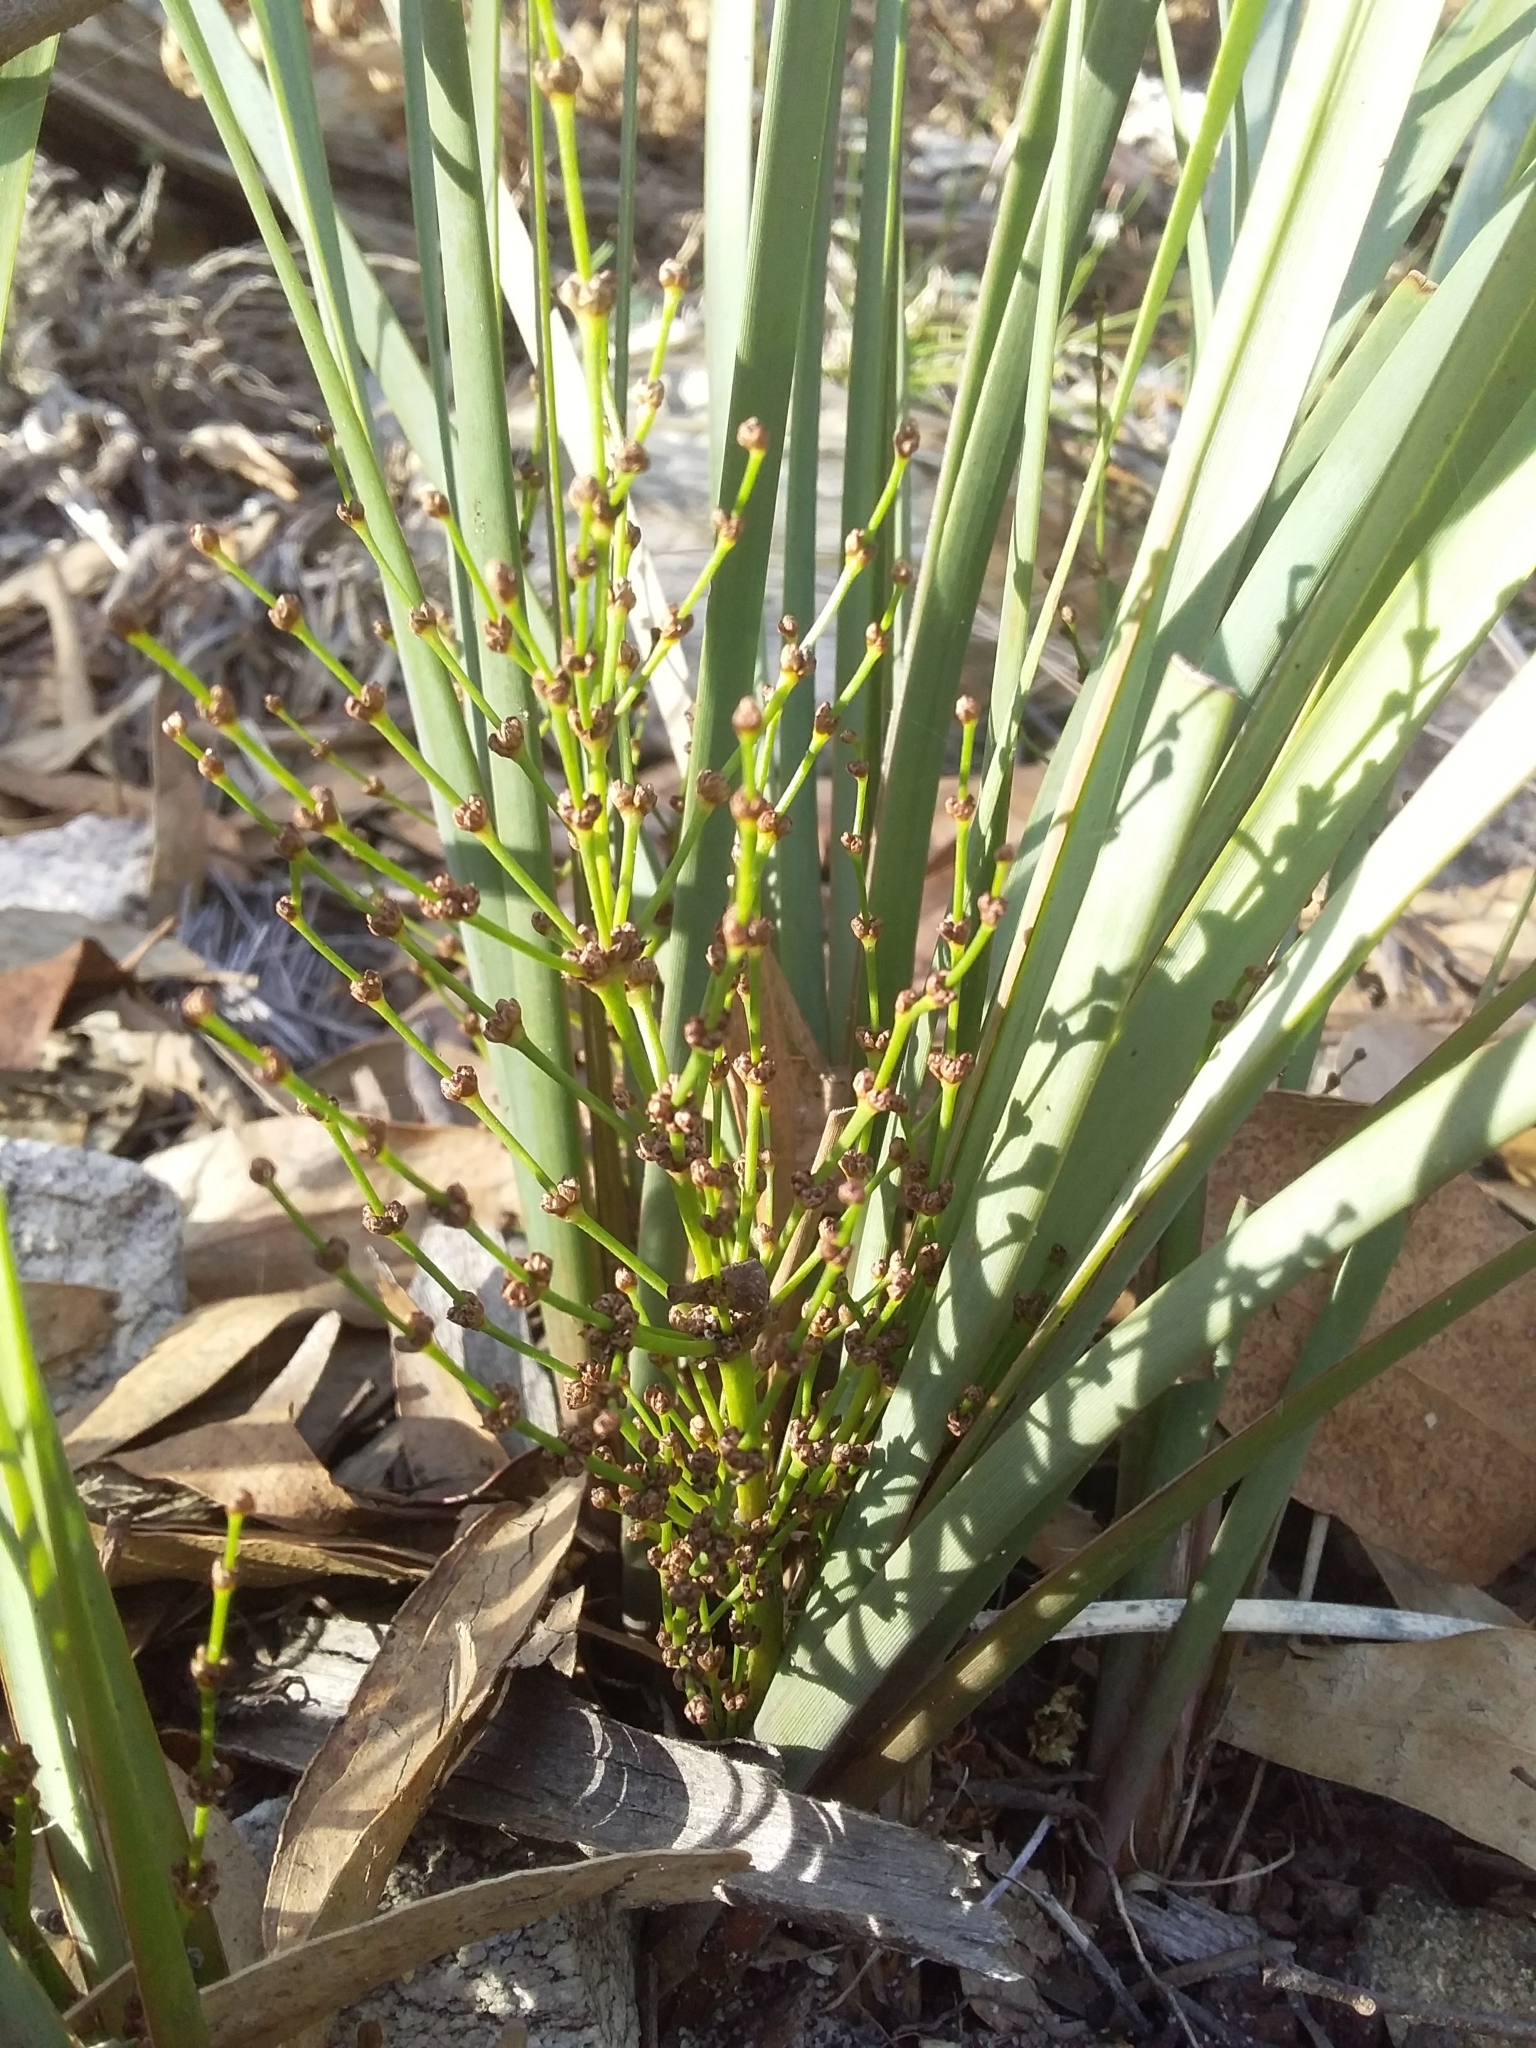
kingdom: Plantae
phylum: Tracheophyta
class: Liliopsida
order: Asparagales
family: Asparagaceae
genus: Lomandra
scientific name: Lomandra multiflora
